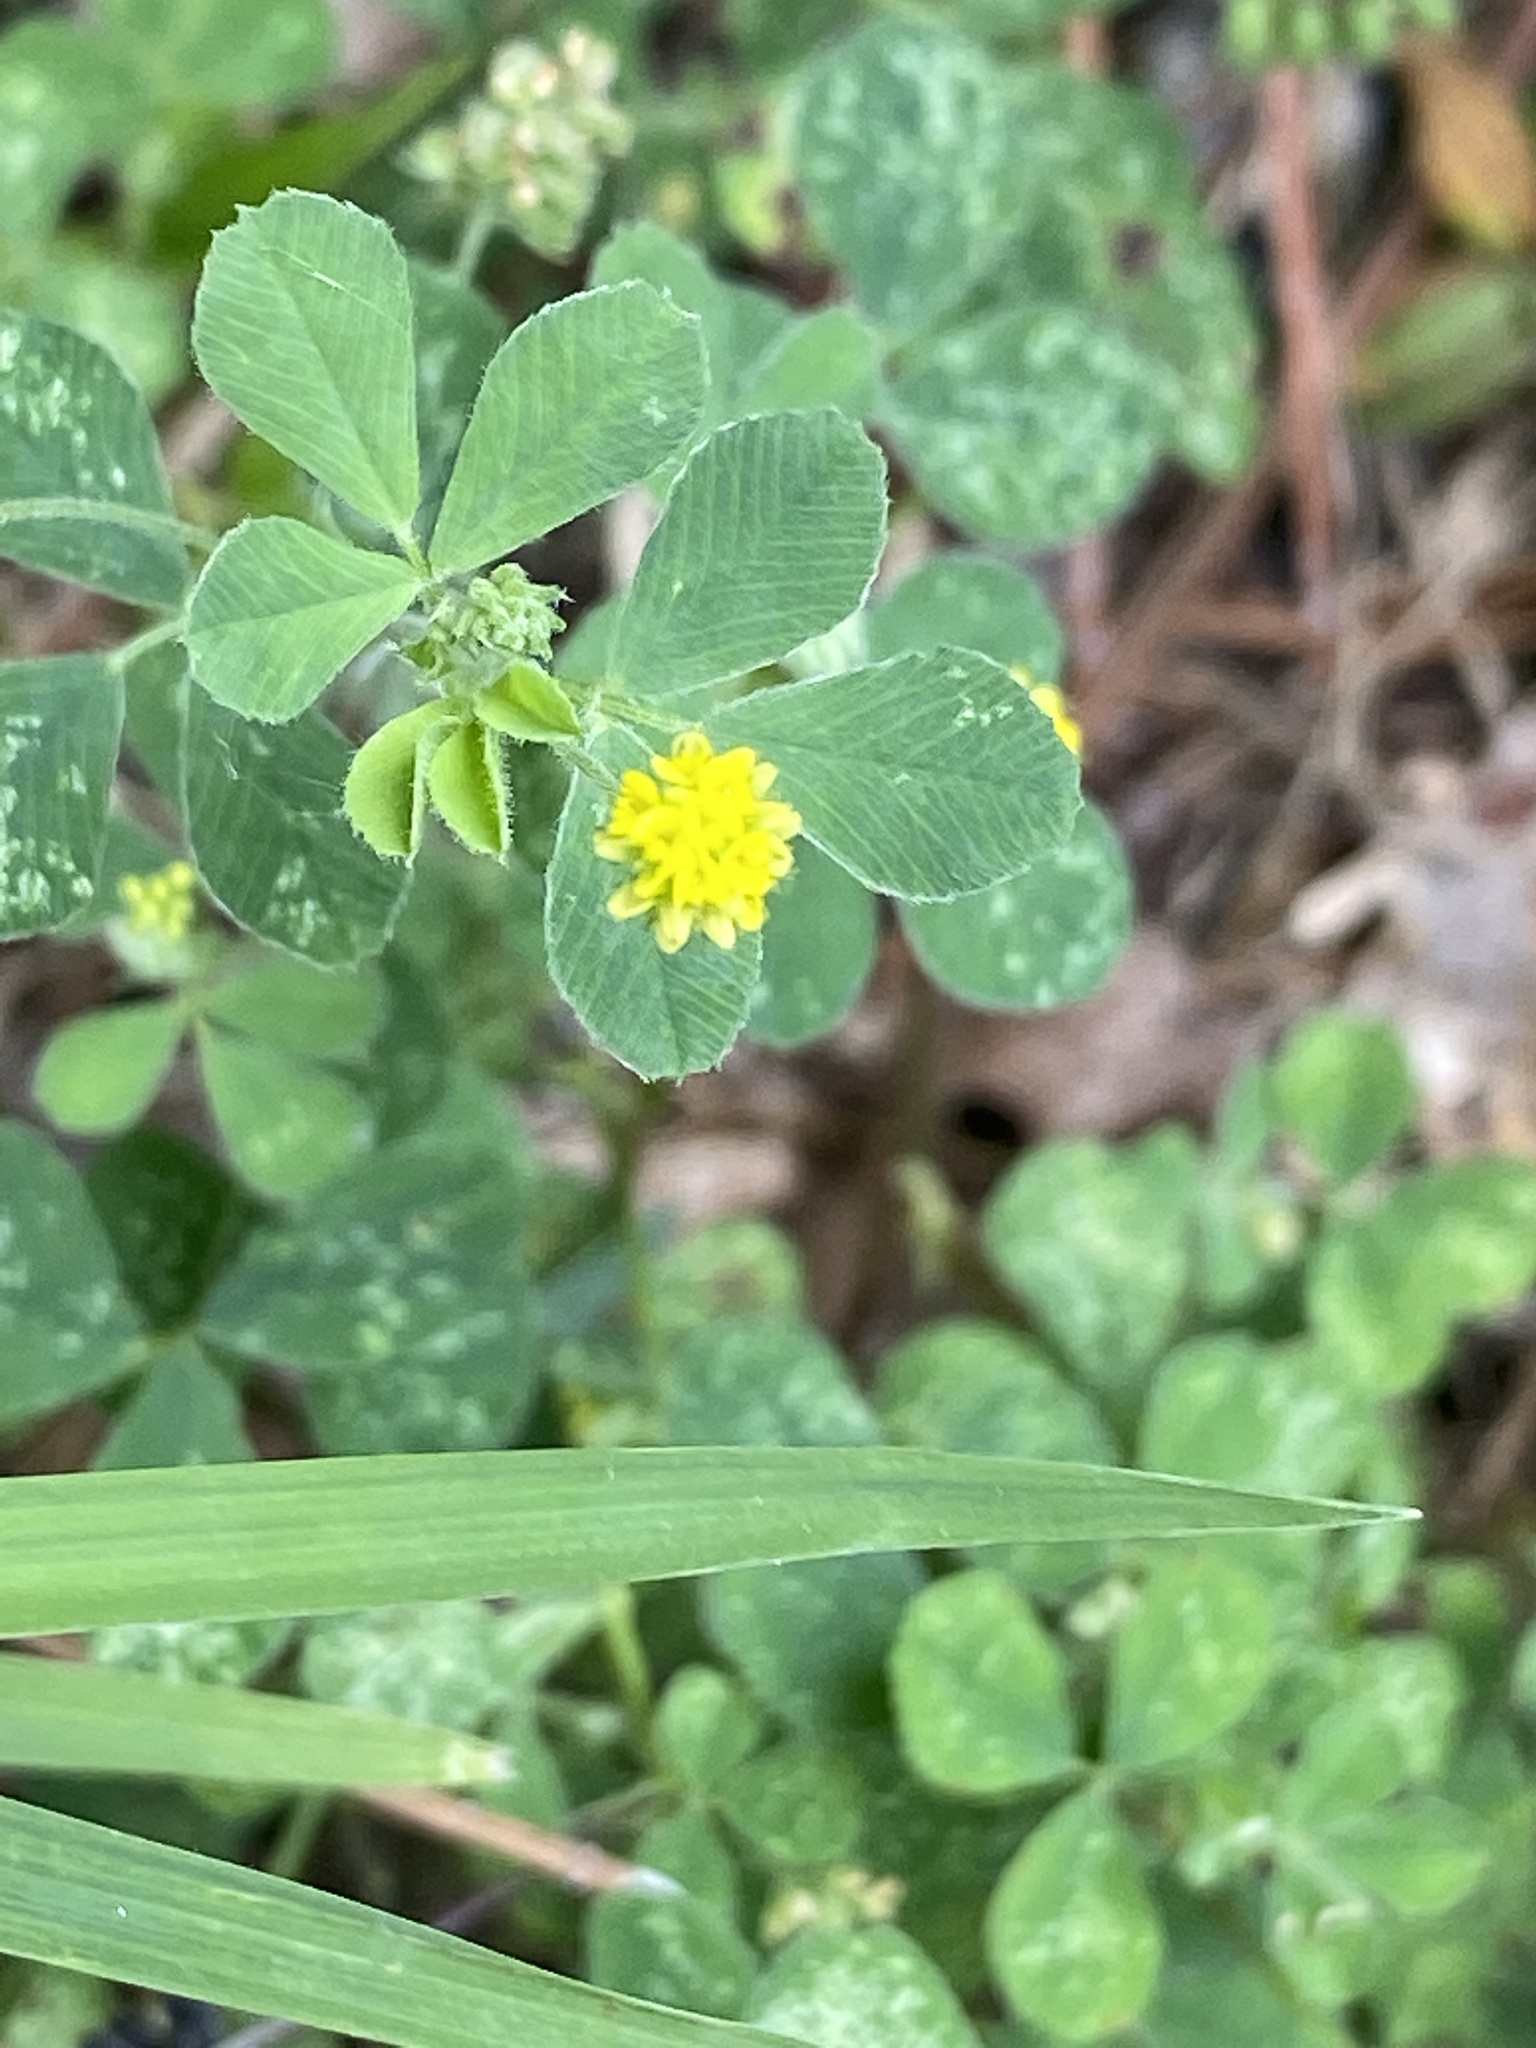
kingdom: Plantae
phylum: Tracheophyta
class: Magnoliopsida
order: Fabales
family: Fabaceae
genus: Medicago
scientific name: Medicago lupulina
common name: Black medick
